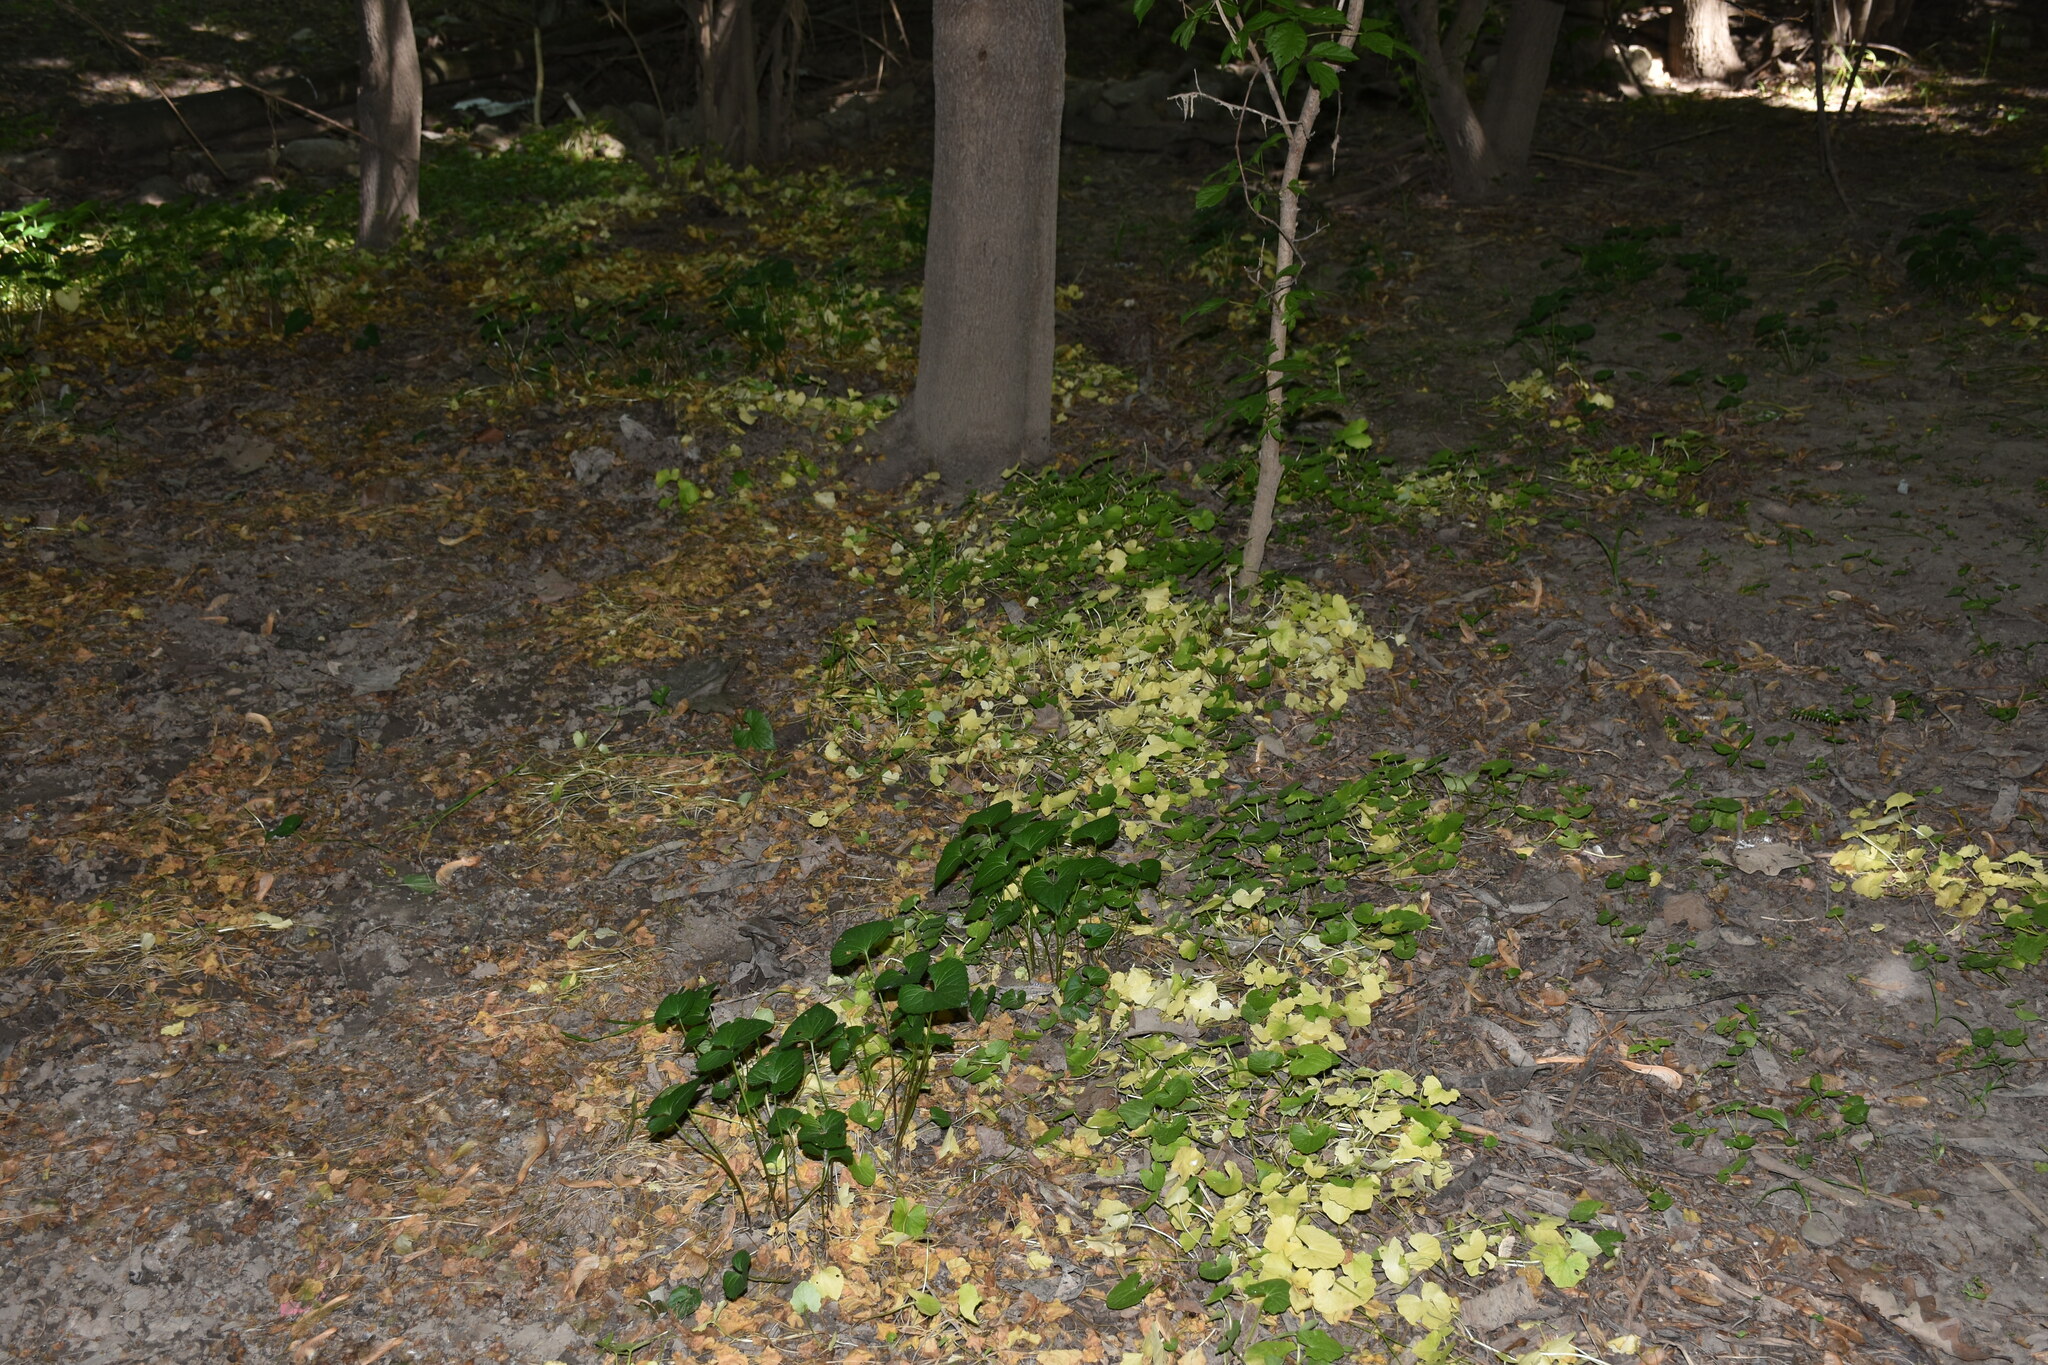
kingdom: Plantae
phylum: Tracheophyta
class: Magnoliopsida
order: Ranunculales
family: Ranunculaceae
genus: Ficaria
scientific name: Ficaria verna
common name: Lesser celandine
